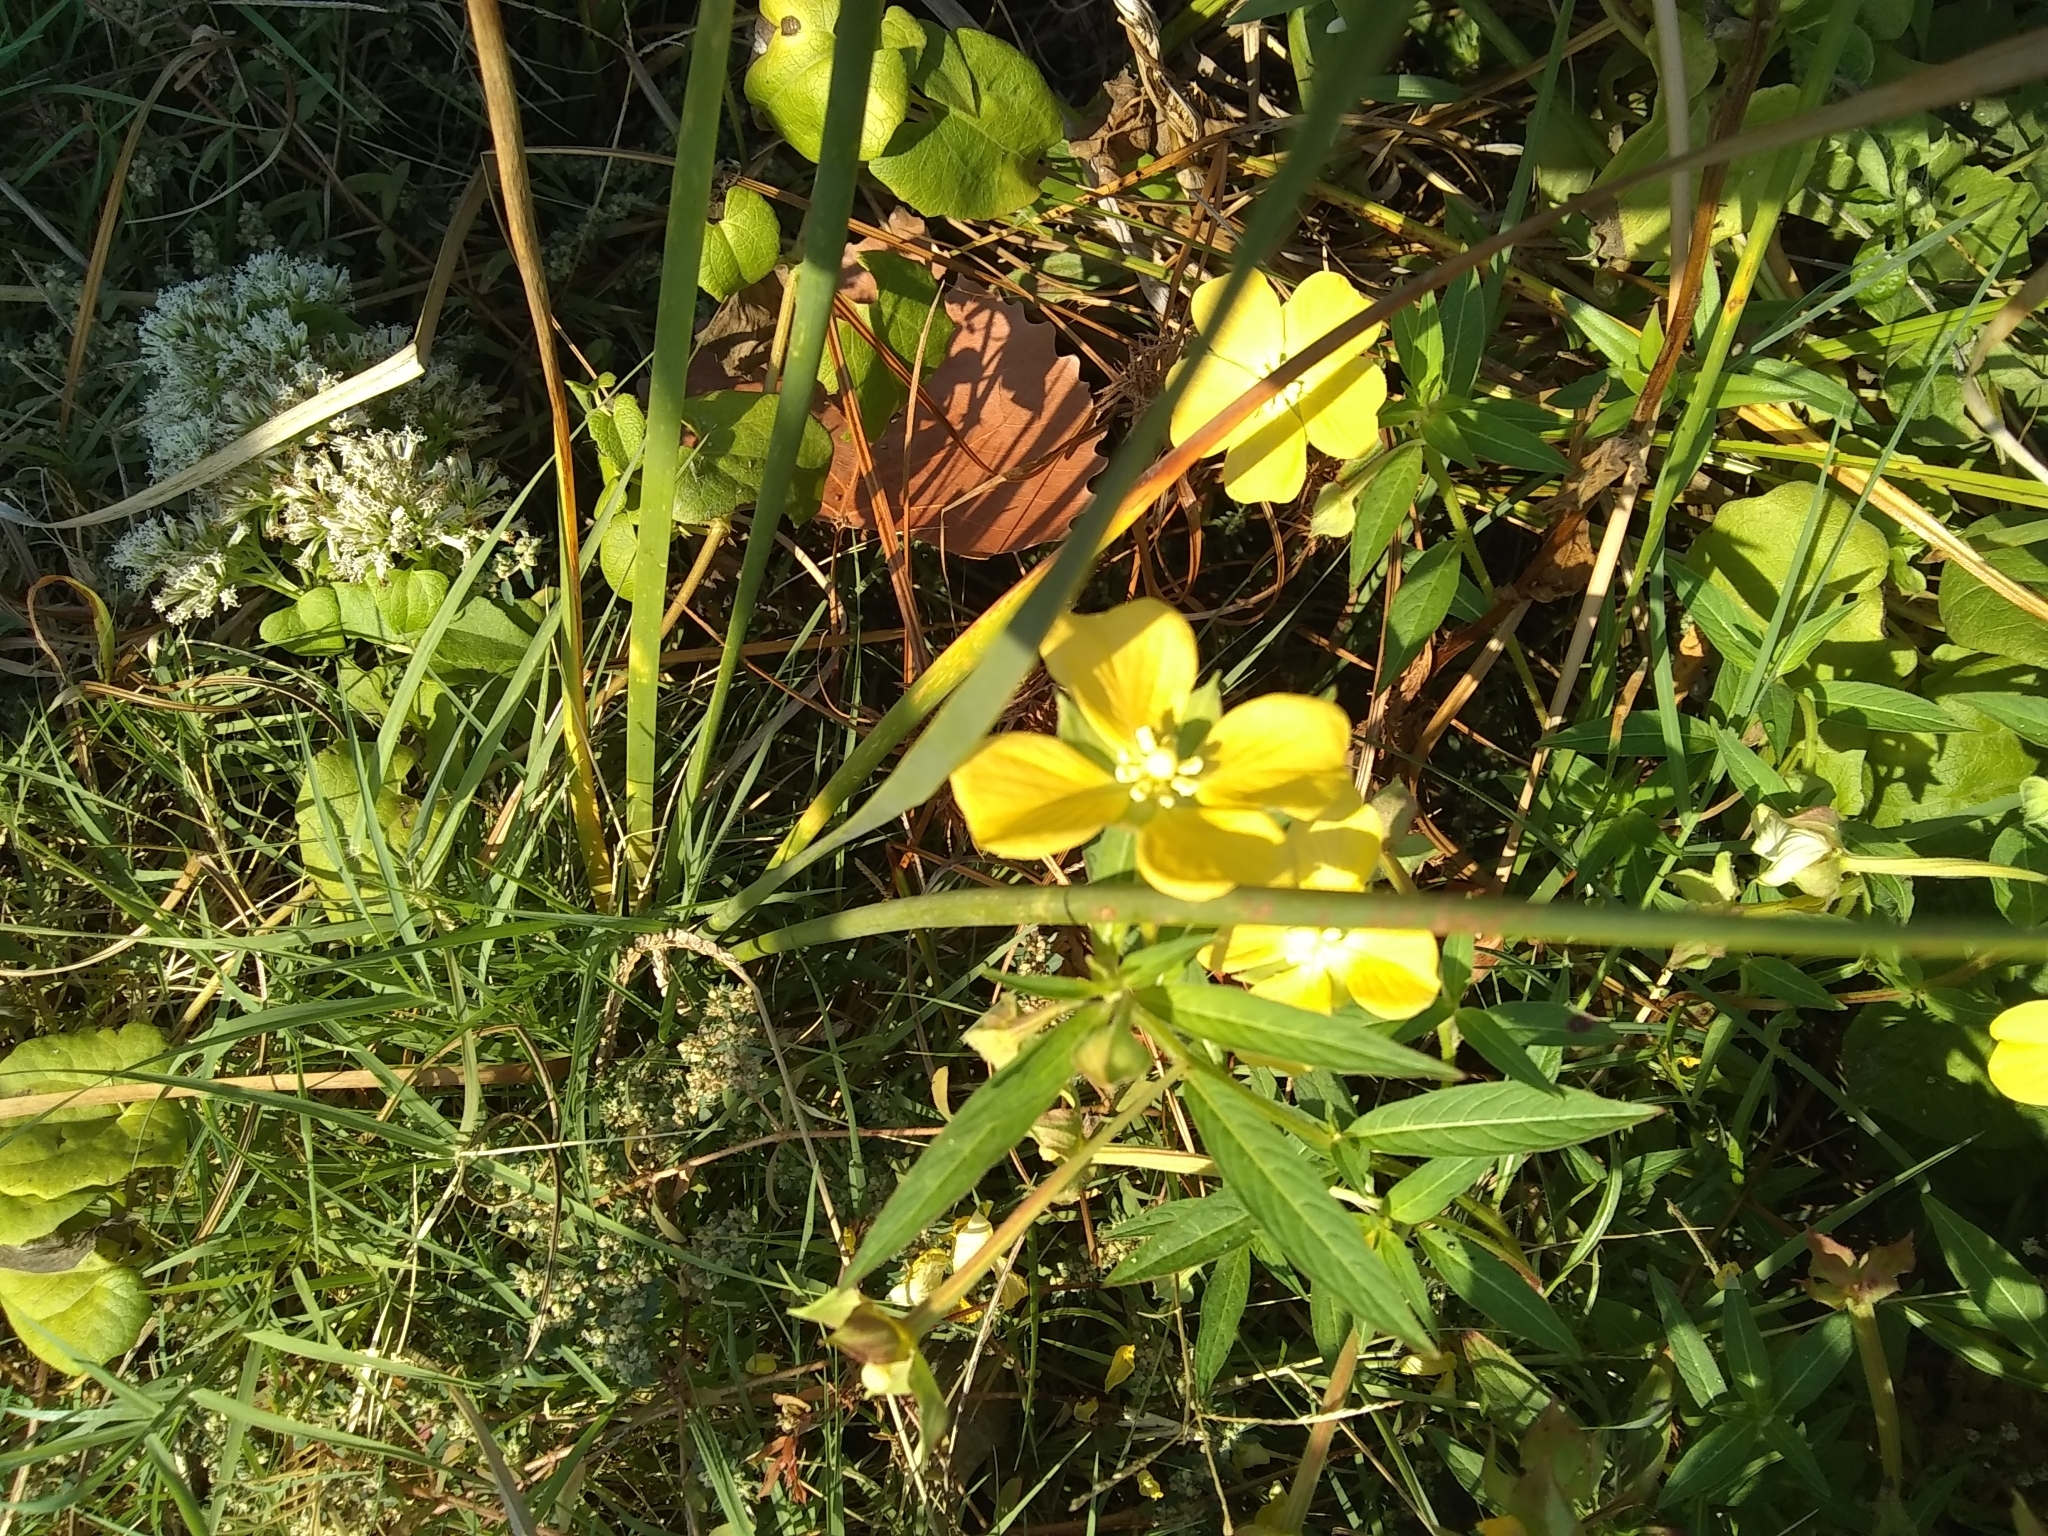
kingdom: Plantae
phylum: Tracheophyta
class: Magnoliopsida
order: Myrtales
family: Onagraceae
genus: Ludwigia
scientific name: Ludwigia octovalvis
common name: Water-primrose
